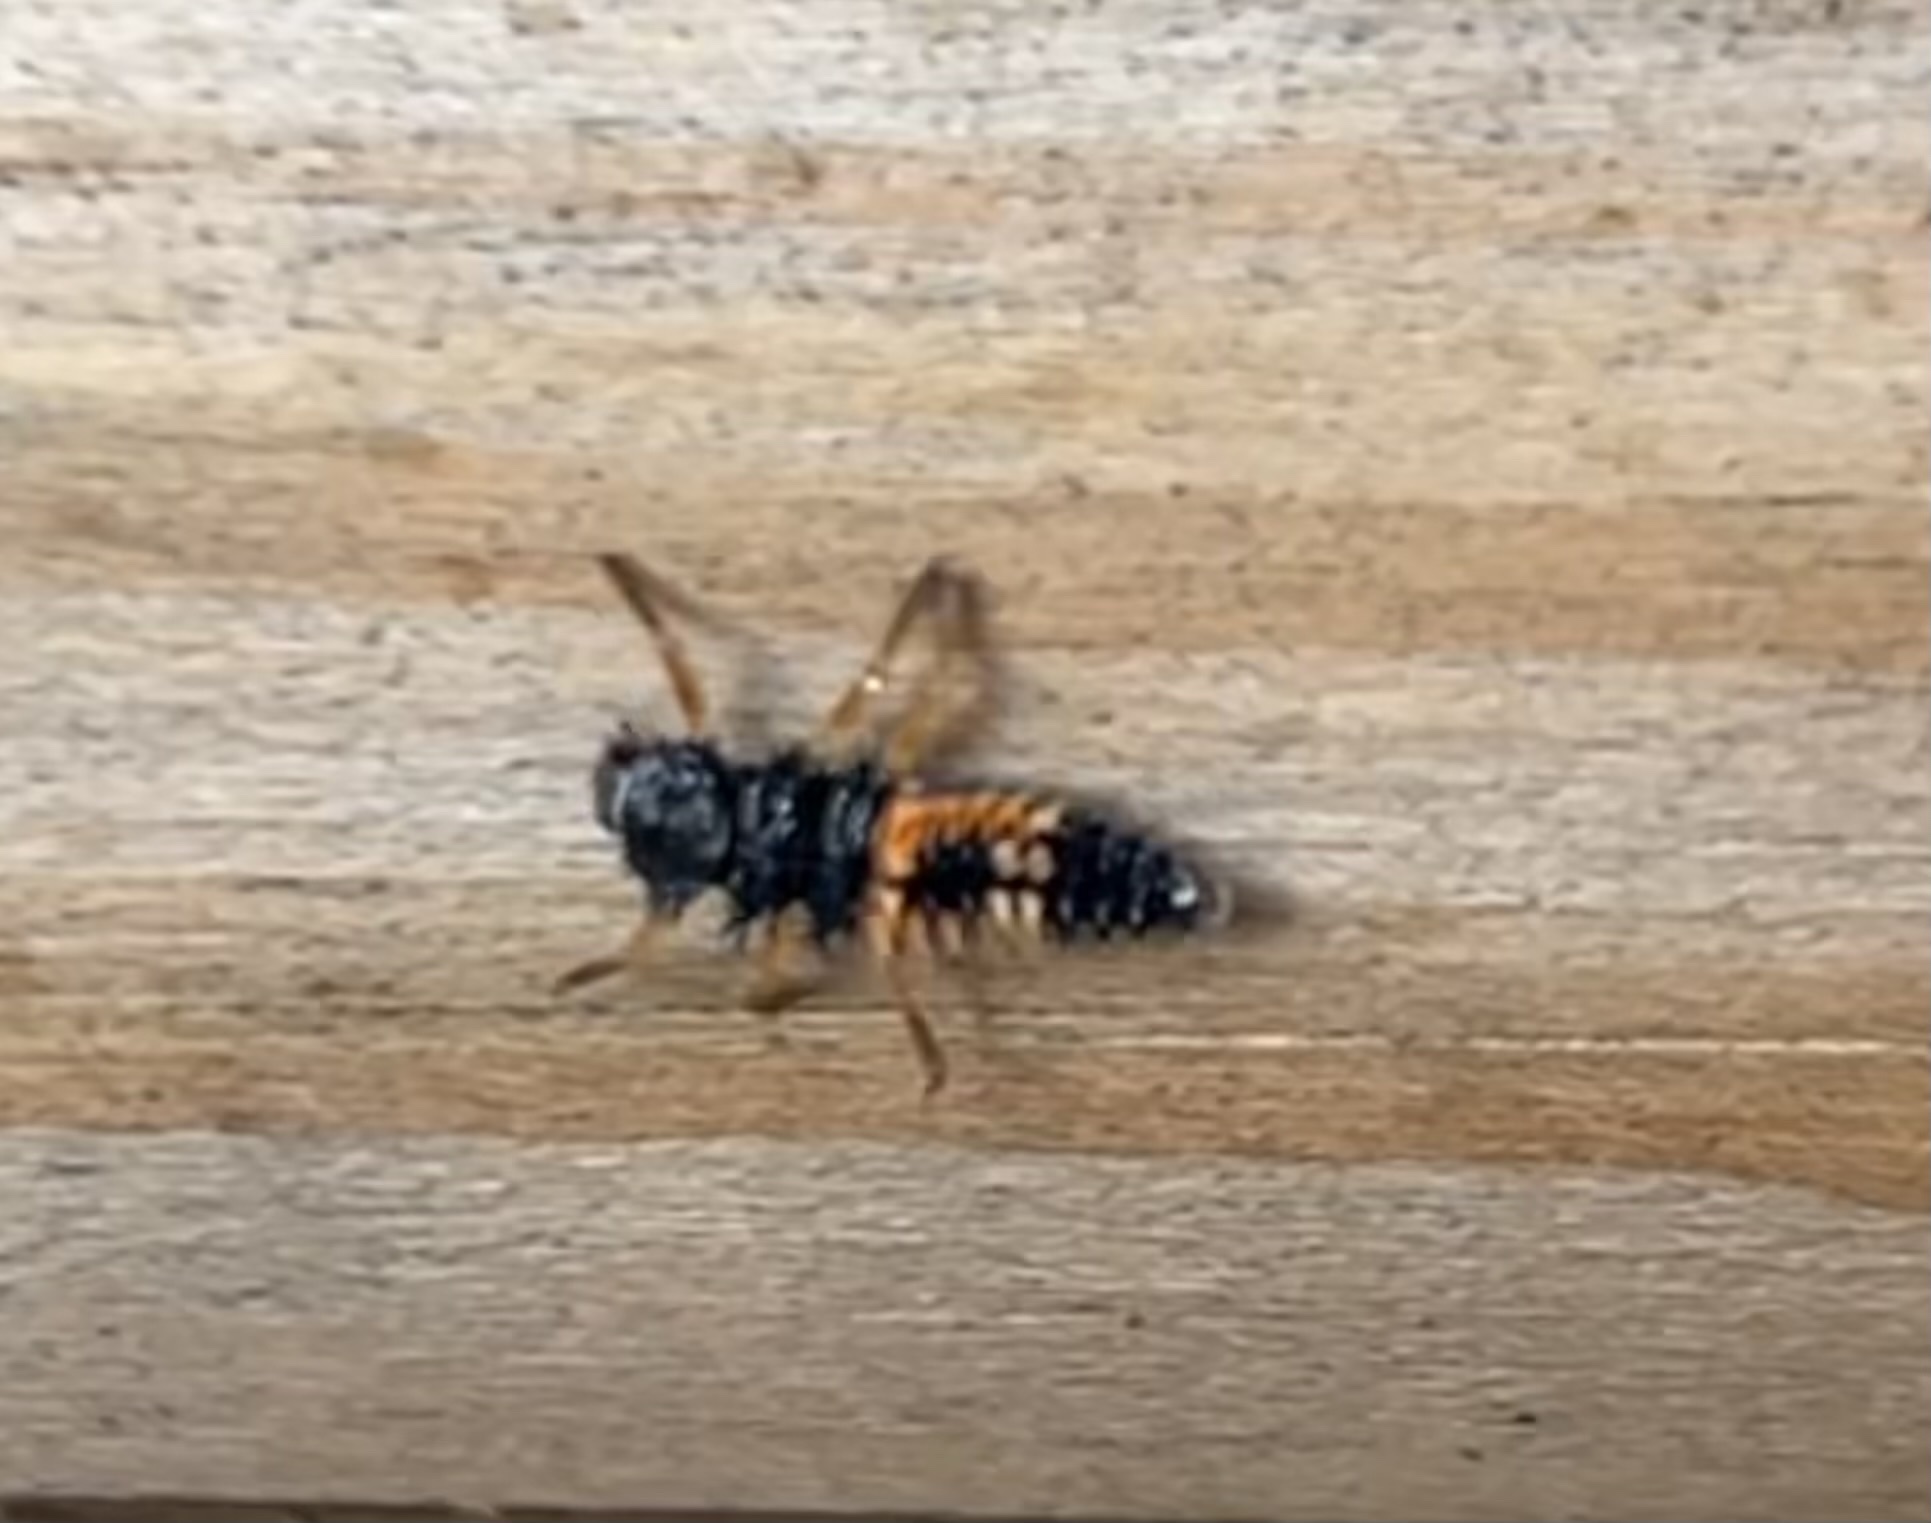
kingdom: Animalia
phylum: Arthropoda
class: Insecta
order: Coleoptera
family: Coccinellidae
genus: Harmonia
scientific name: Harmonia axyridis
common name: Harlequin ladybird
